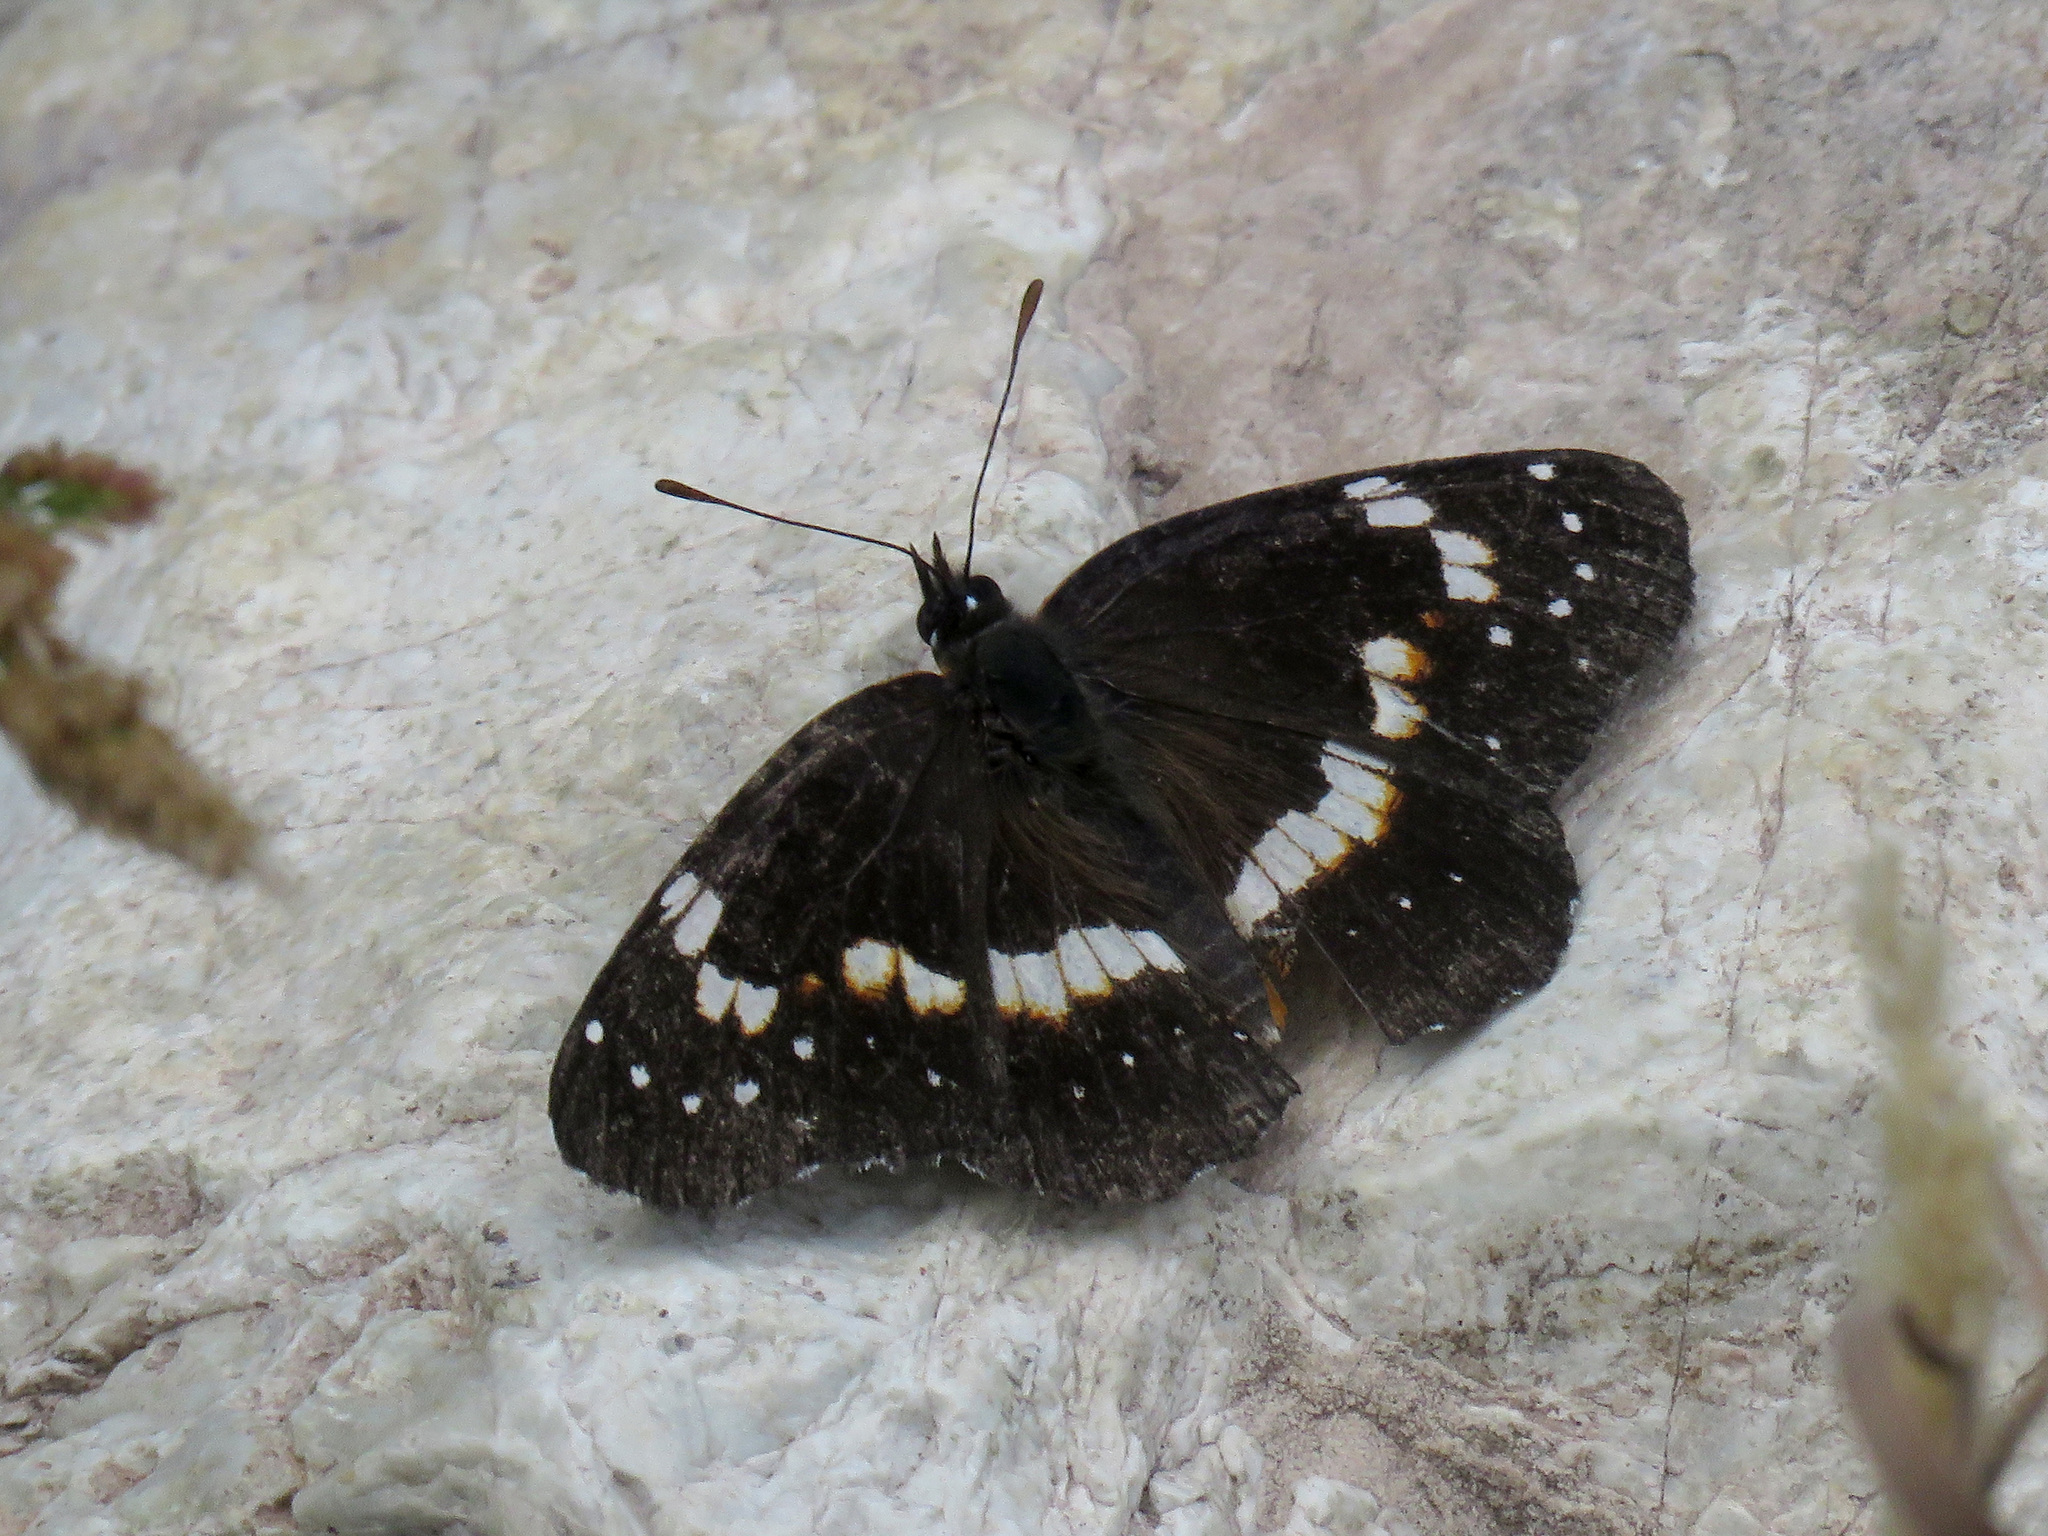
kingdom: Animalia
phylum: Arthropoda
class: Insecta
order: Lepidoptera
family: Nymphalidae
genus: Chlosyne
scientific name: Chlosyne lacinia
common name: Bordered patch
